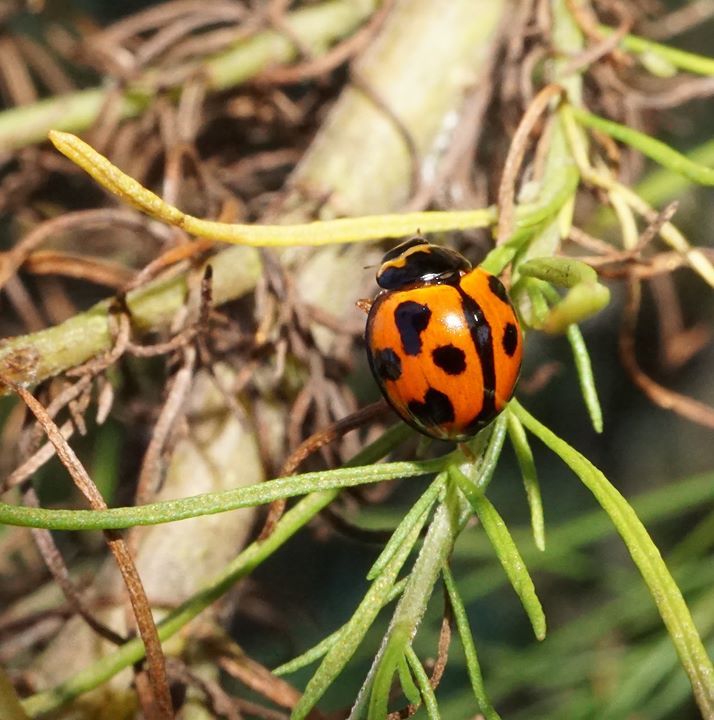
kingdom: Animalia
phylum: Arthropoda
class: Insecta
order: Coleoptera
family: Coccinellidae
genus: Coelophora
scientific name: Coelophora inaequalis
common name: Common australian lady beetle
